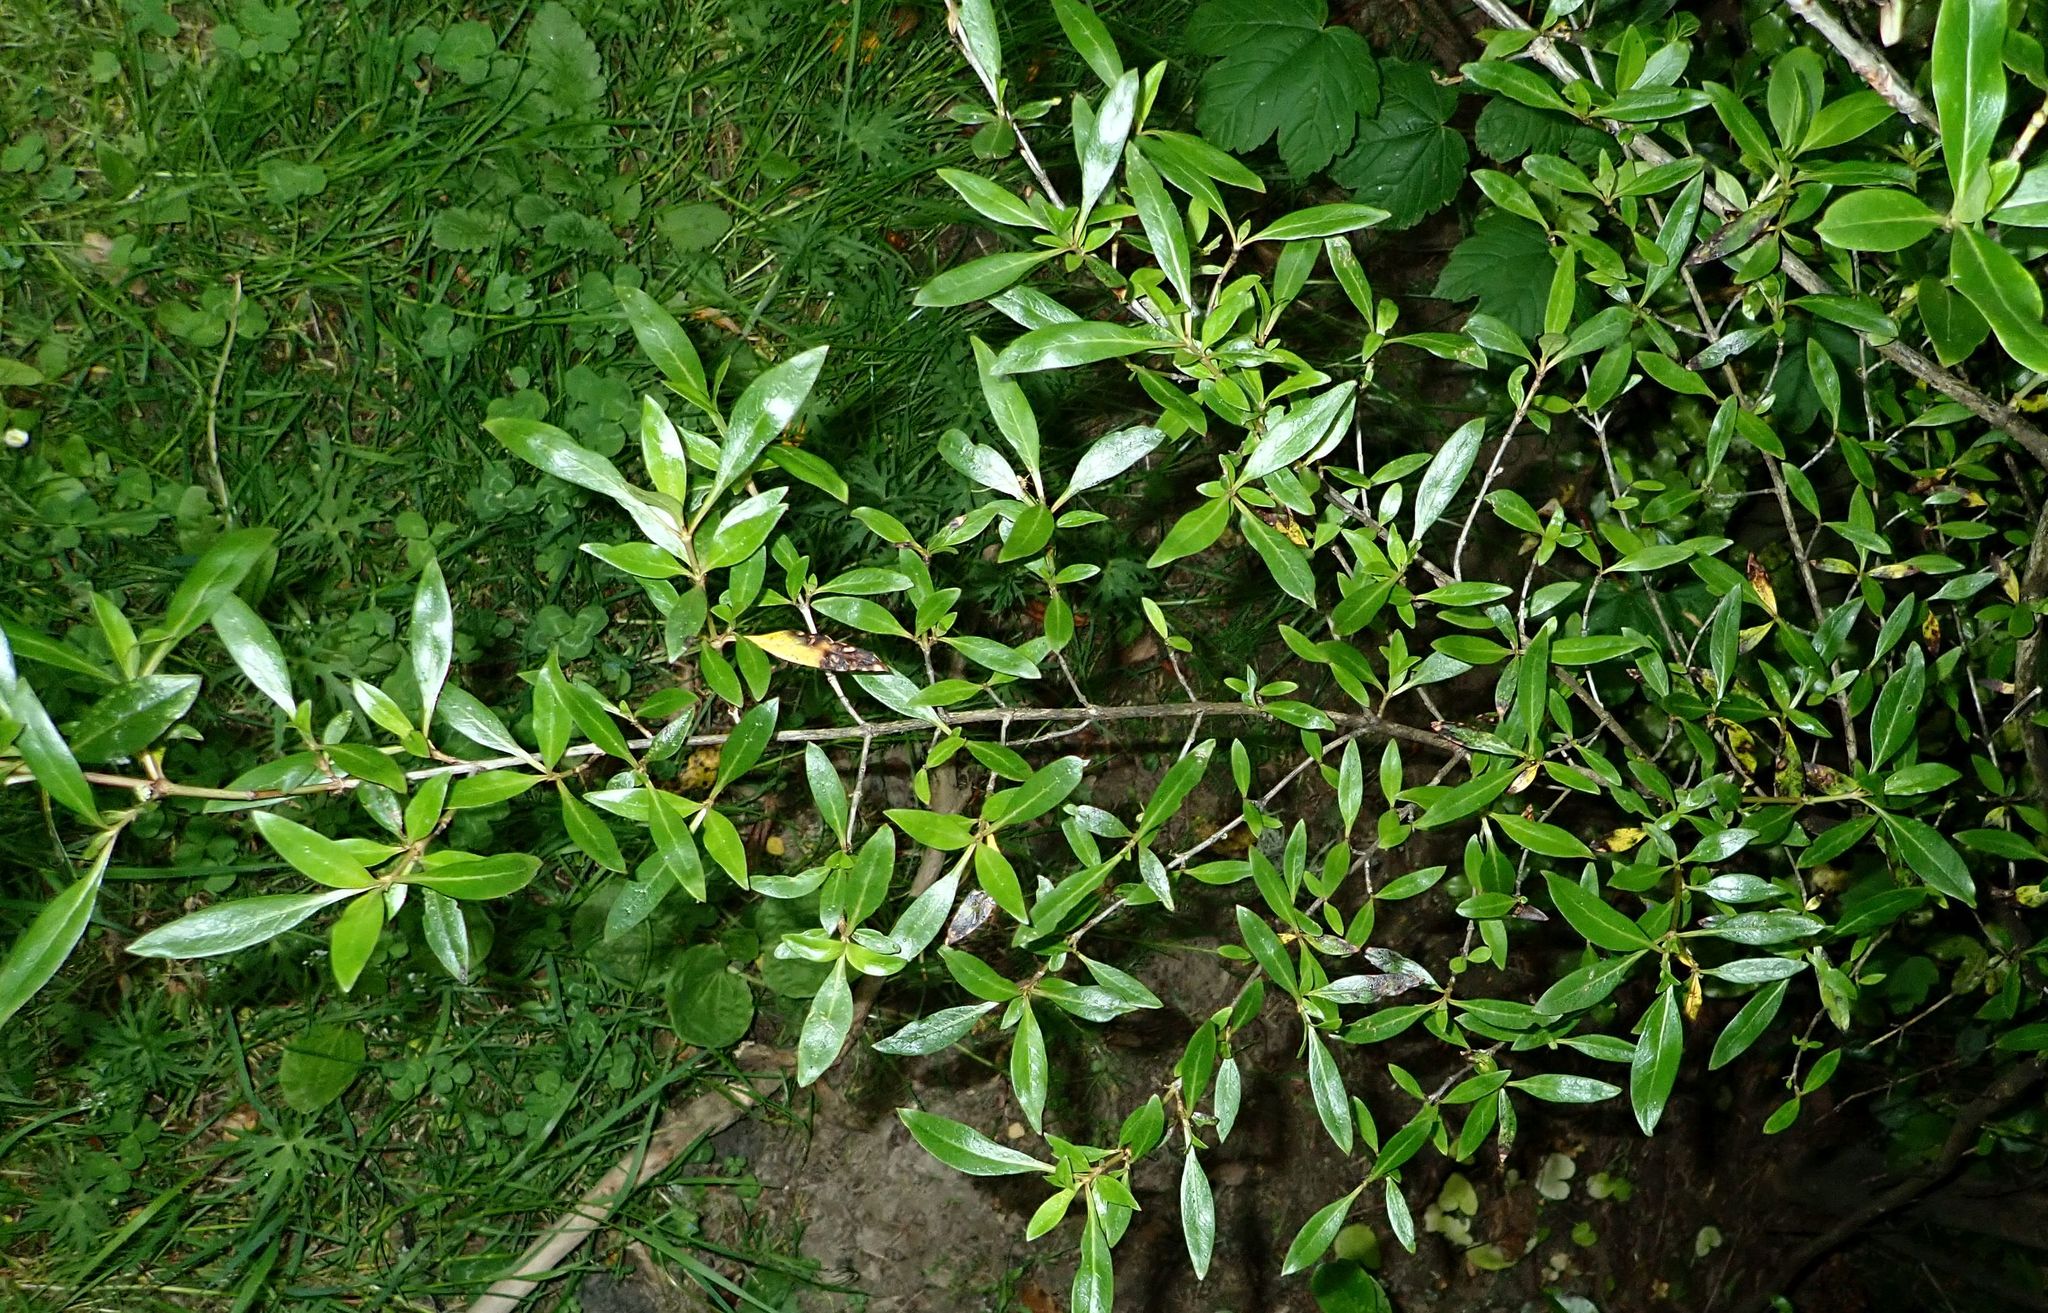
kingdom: Plantae
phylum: Tracheophyta
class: Magnoliopsida
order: Gentianales
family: Rubiaceae
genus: Coprosma
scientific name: Coprosma cunninghamii
